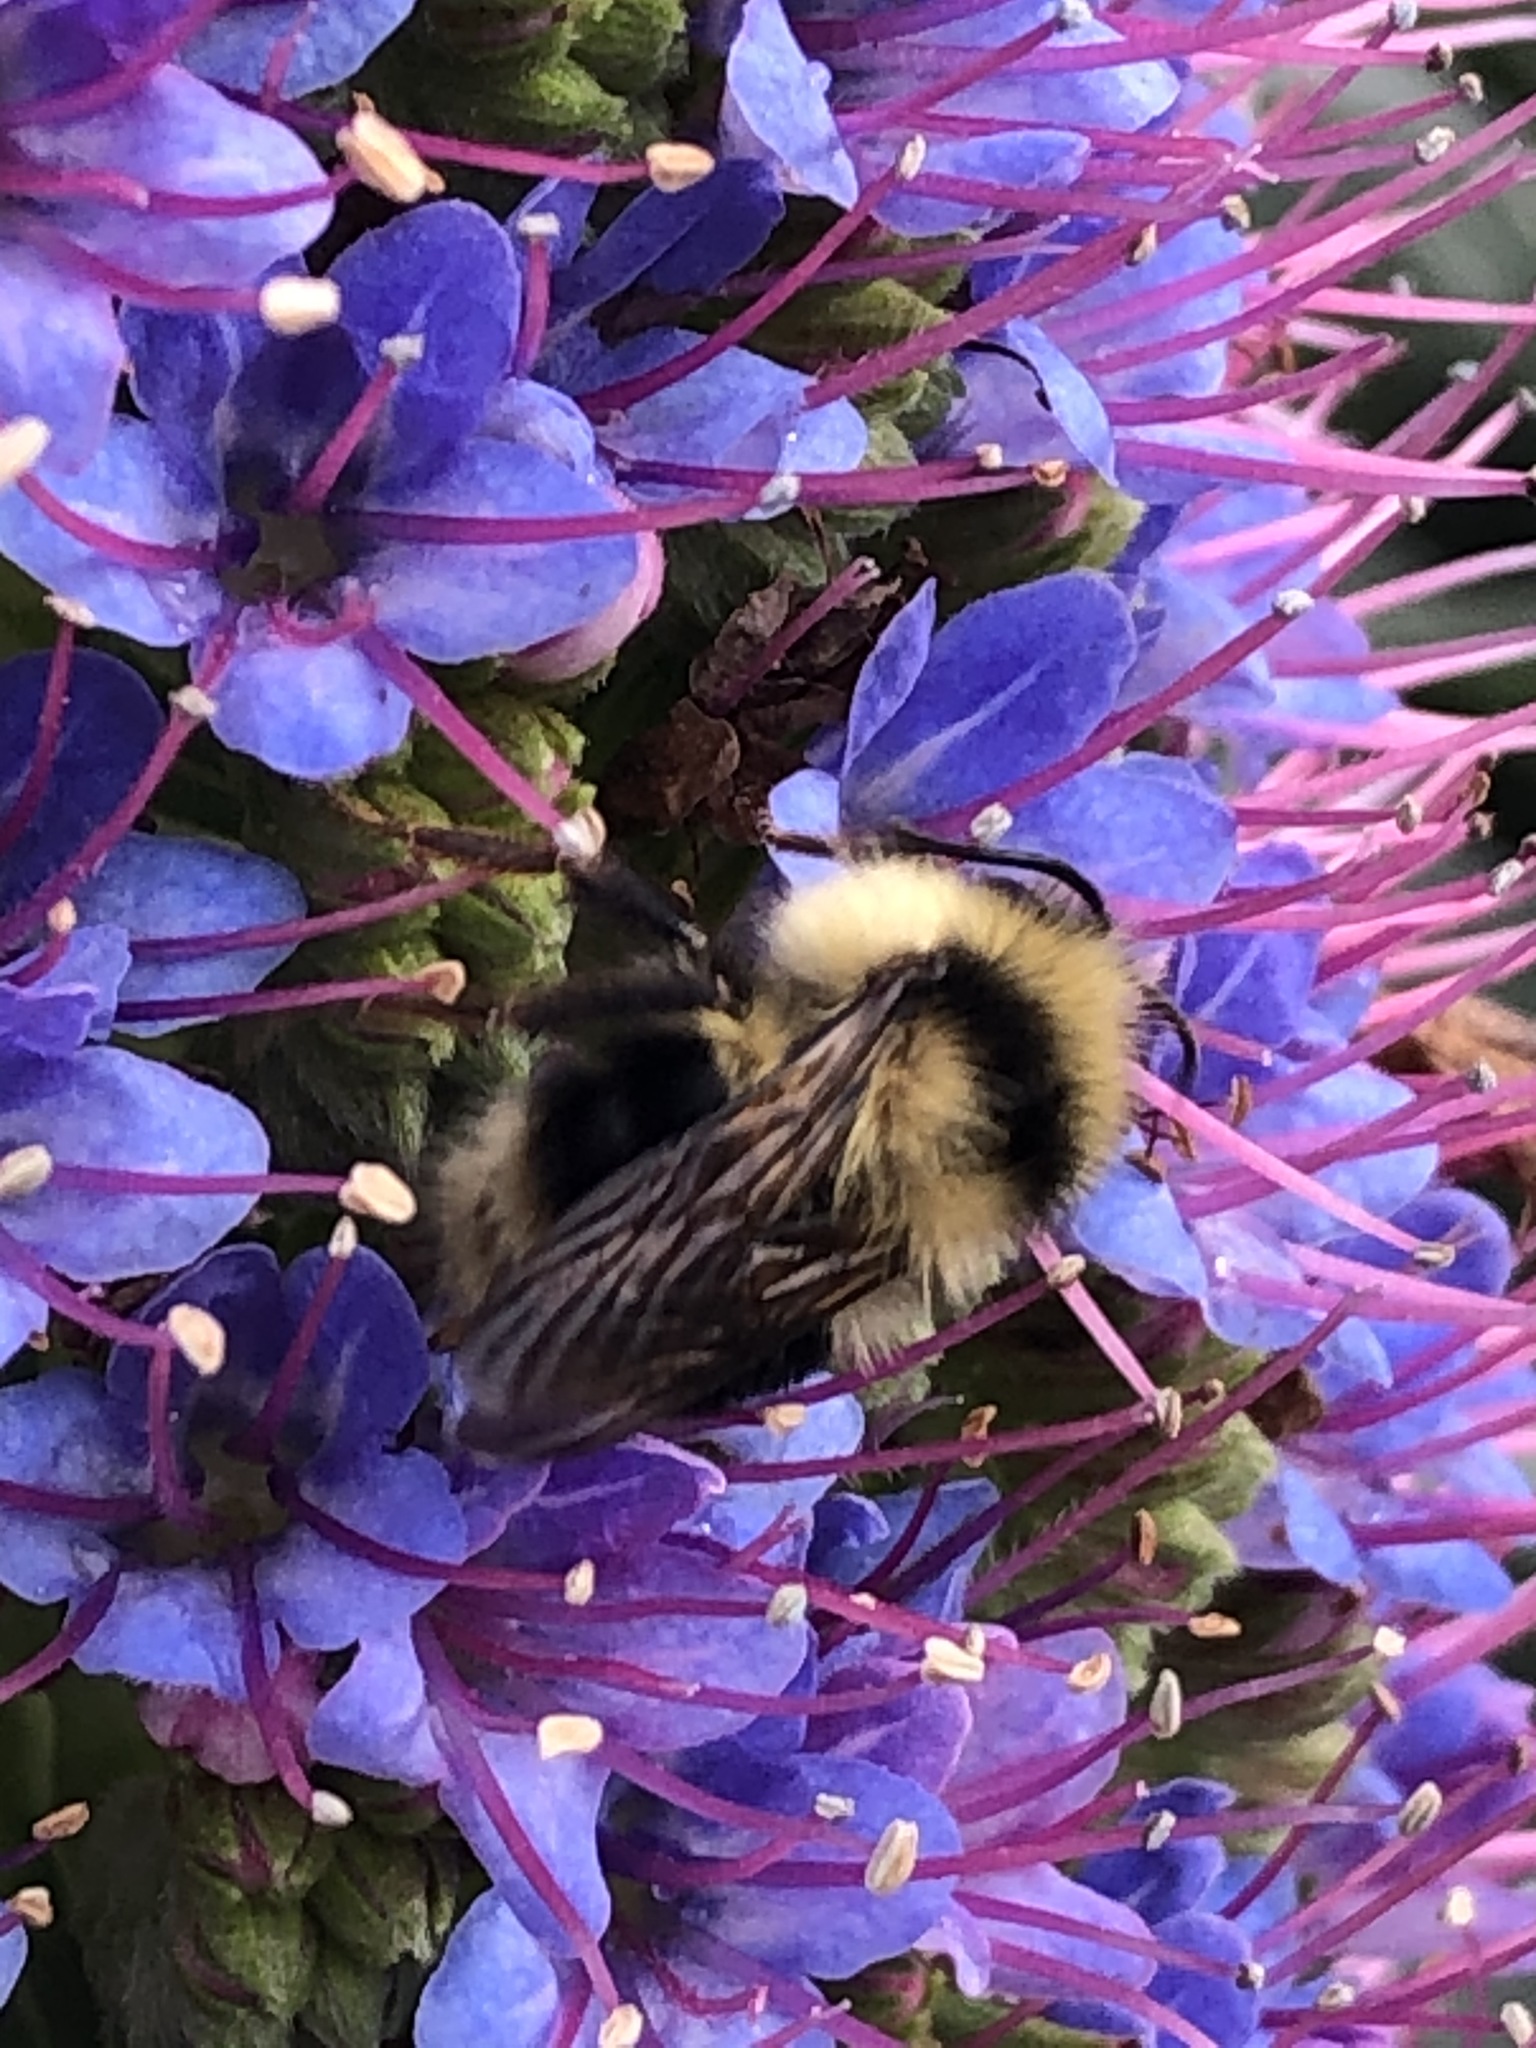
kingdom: Animalia
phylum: Arthropoda
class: Insecta
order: Hymenoptera
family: Apidae
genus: Bombus
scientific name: Bombus melanopygus
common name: Black tail bumble bee
